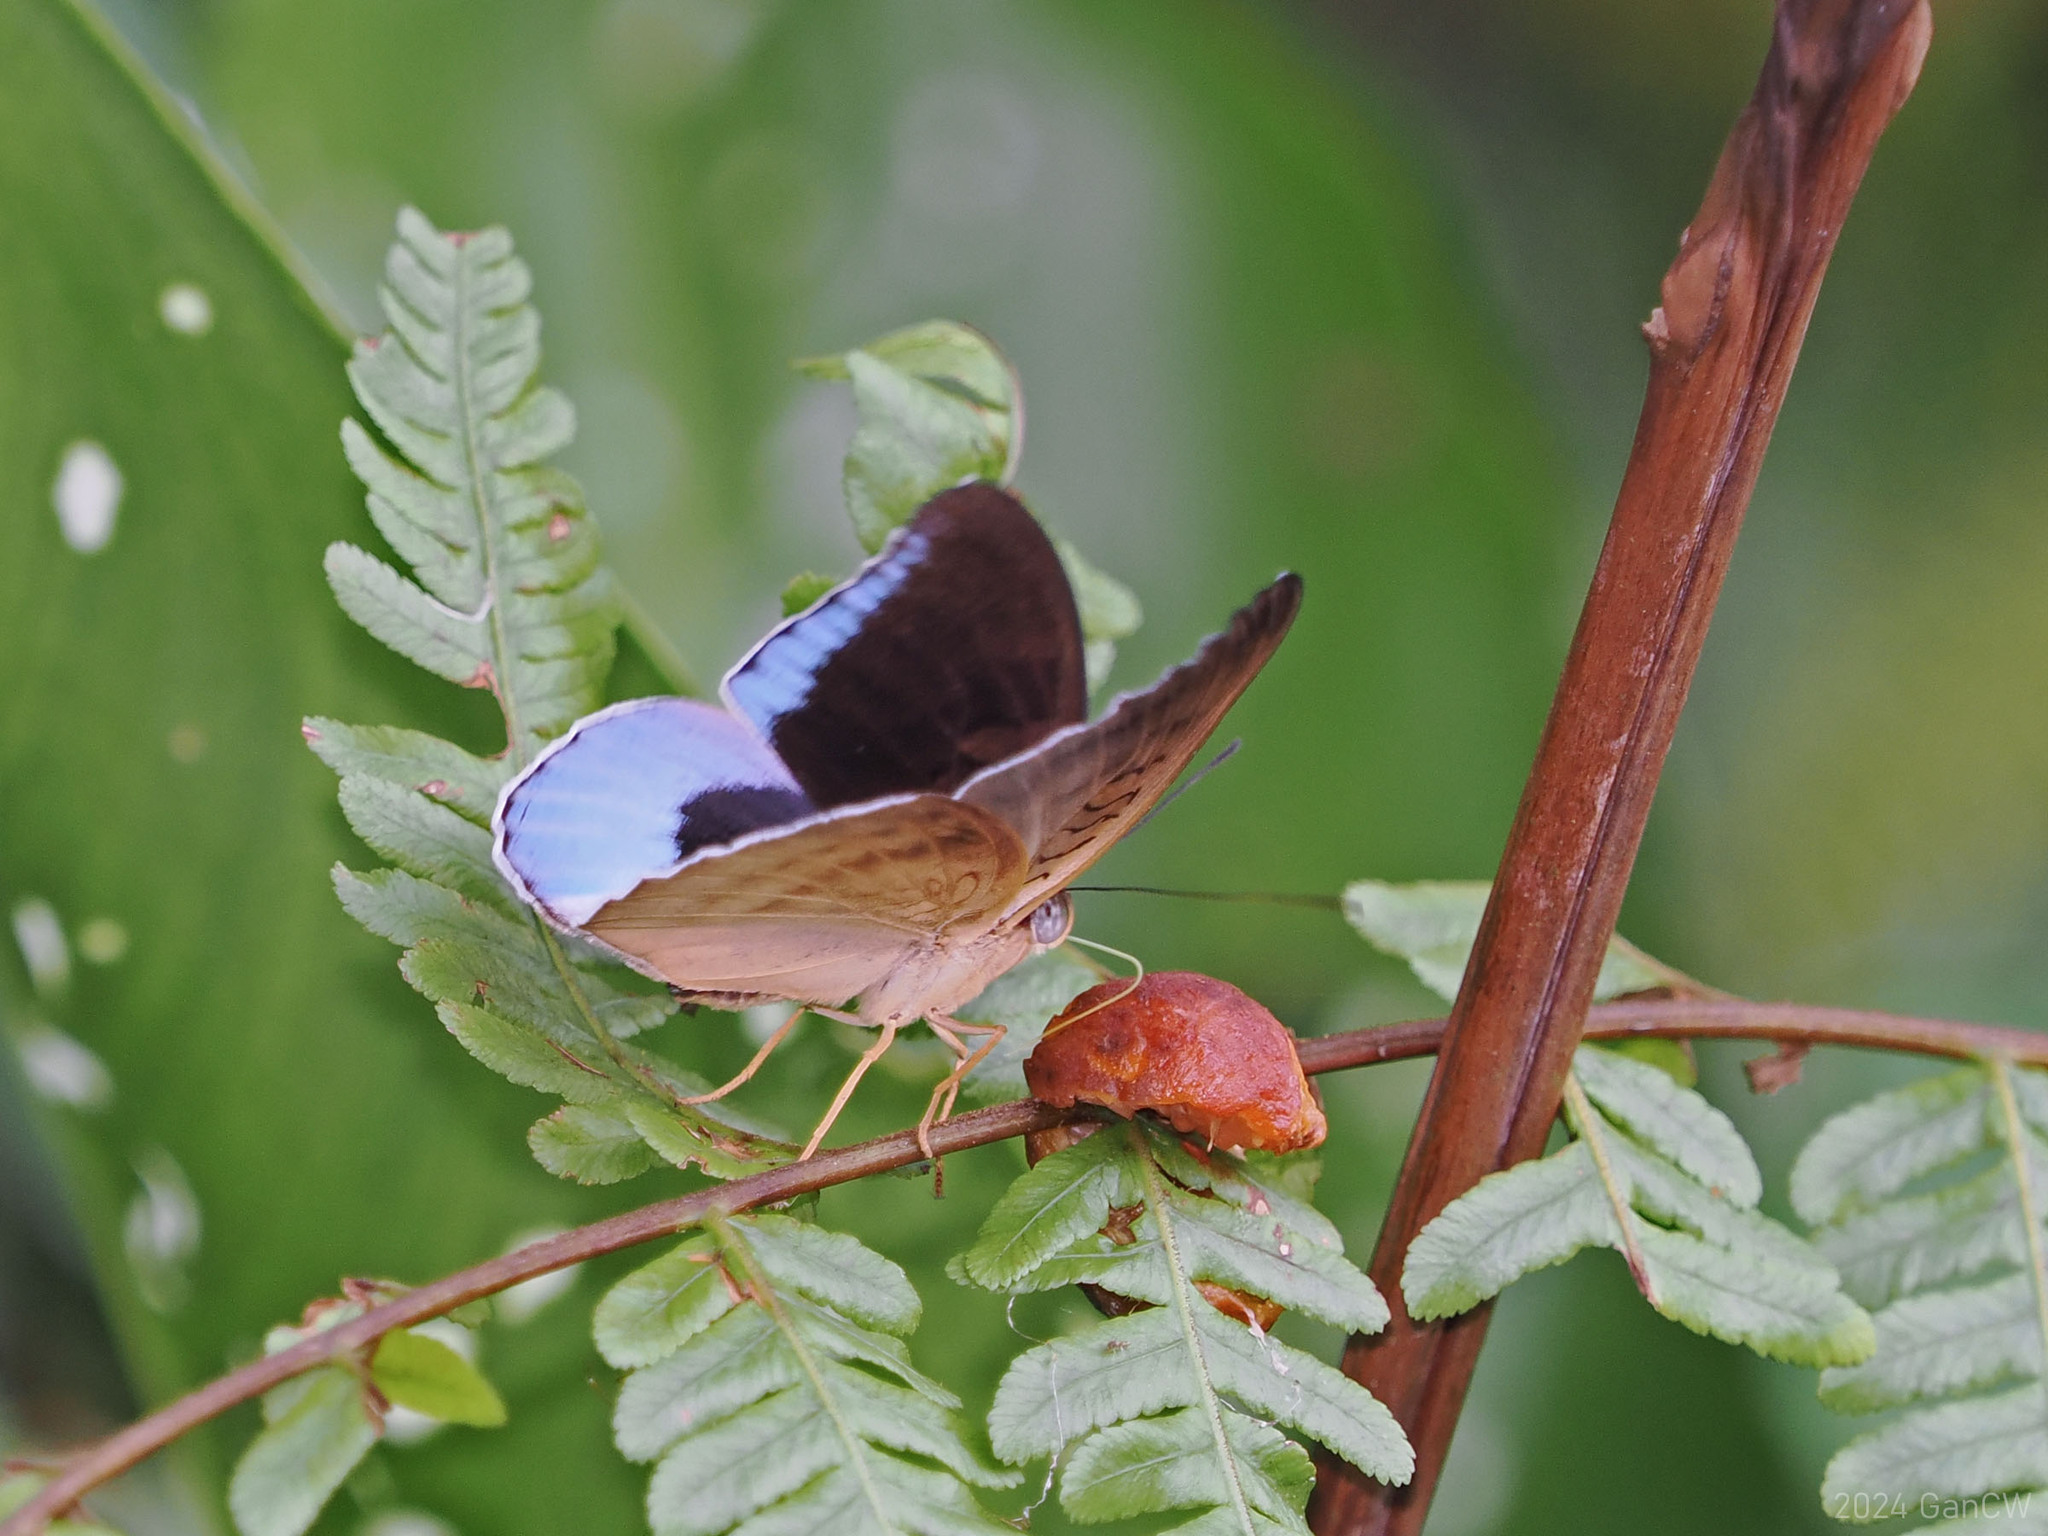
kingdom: Animalia
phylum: Arthropoda
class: Insecta
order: Lepidoptera
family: Nymphalidae
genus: Tanaecia
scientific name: Tanaecia iapis
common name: Horsfield's baron
